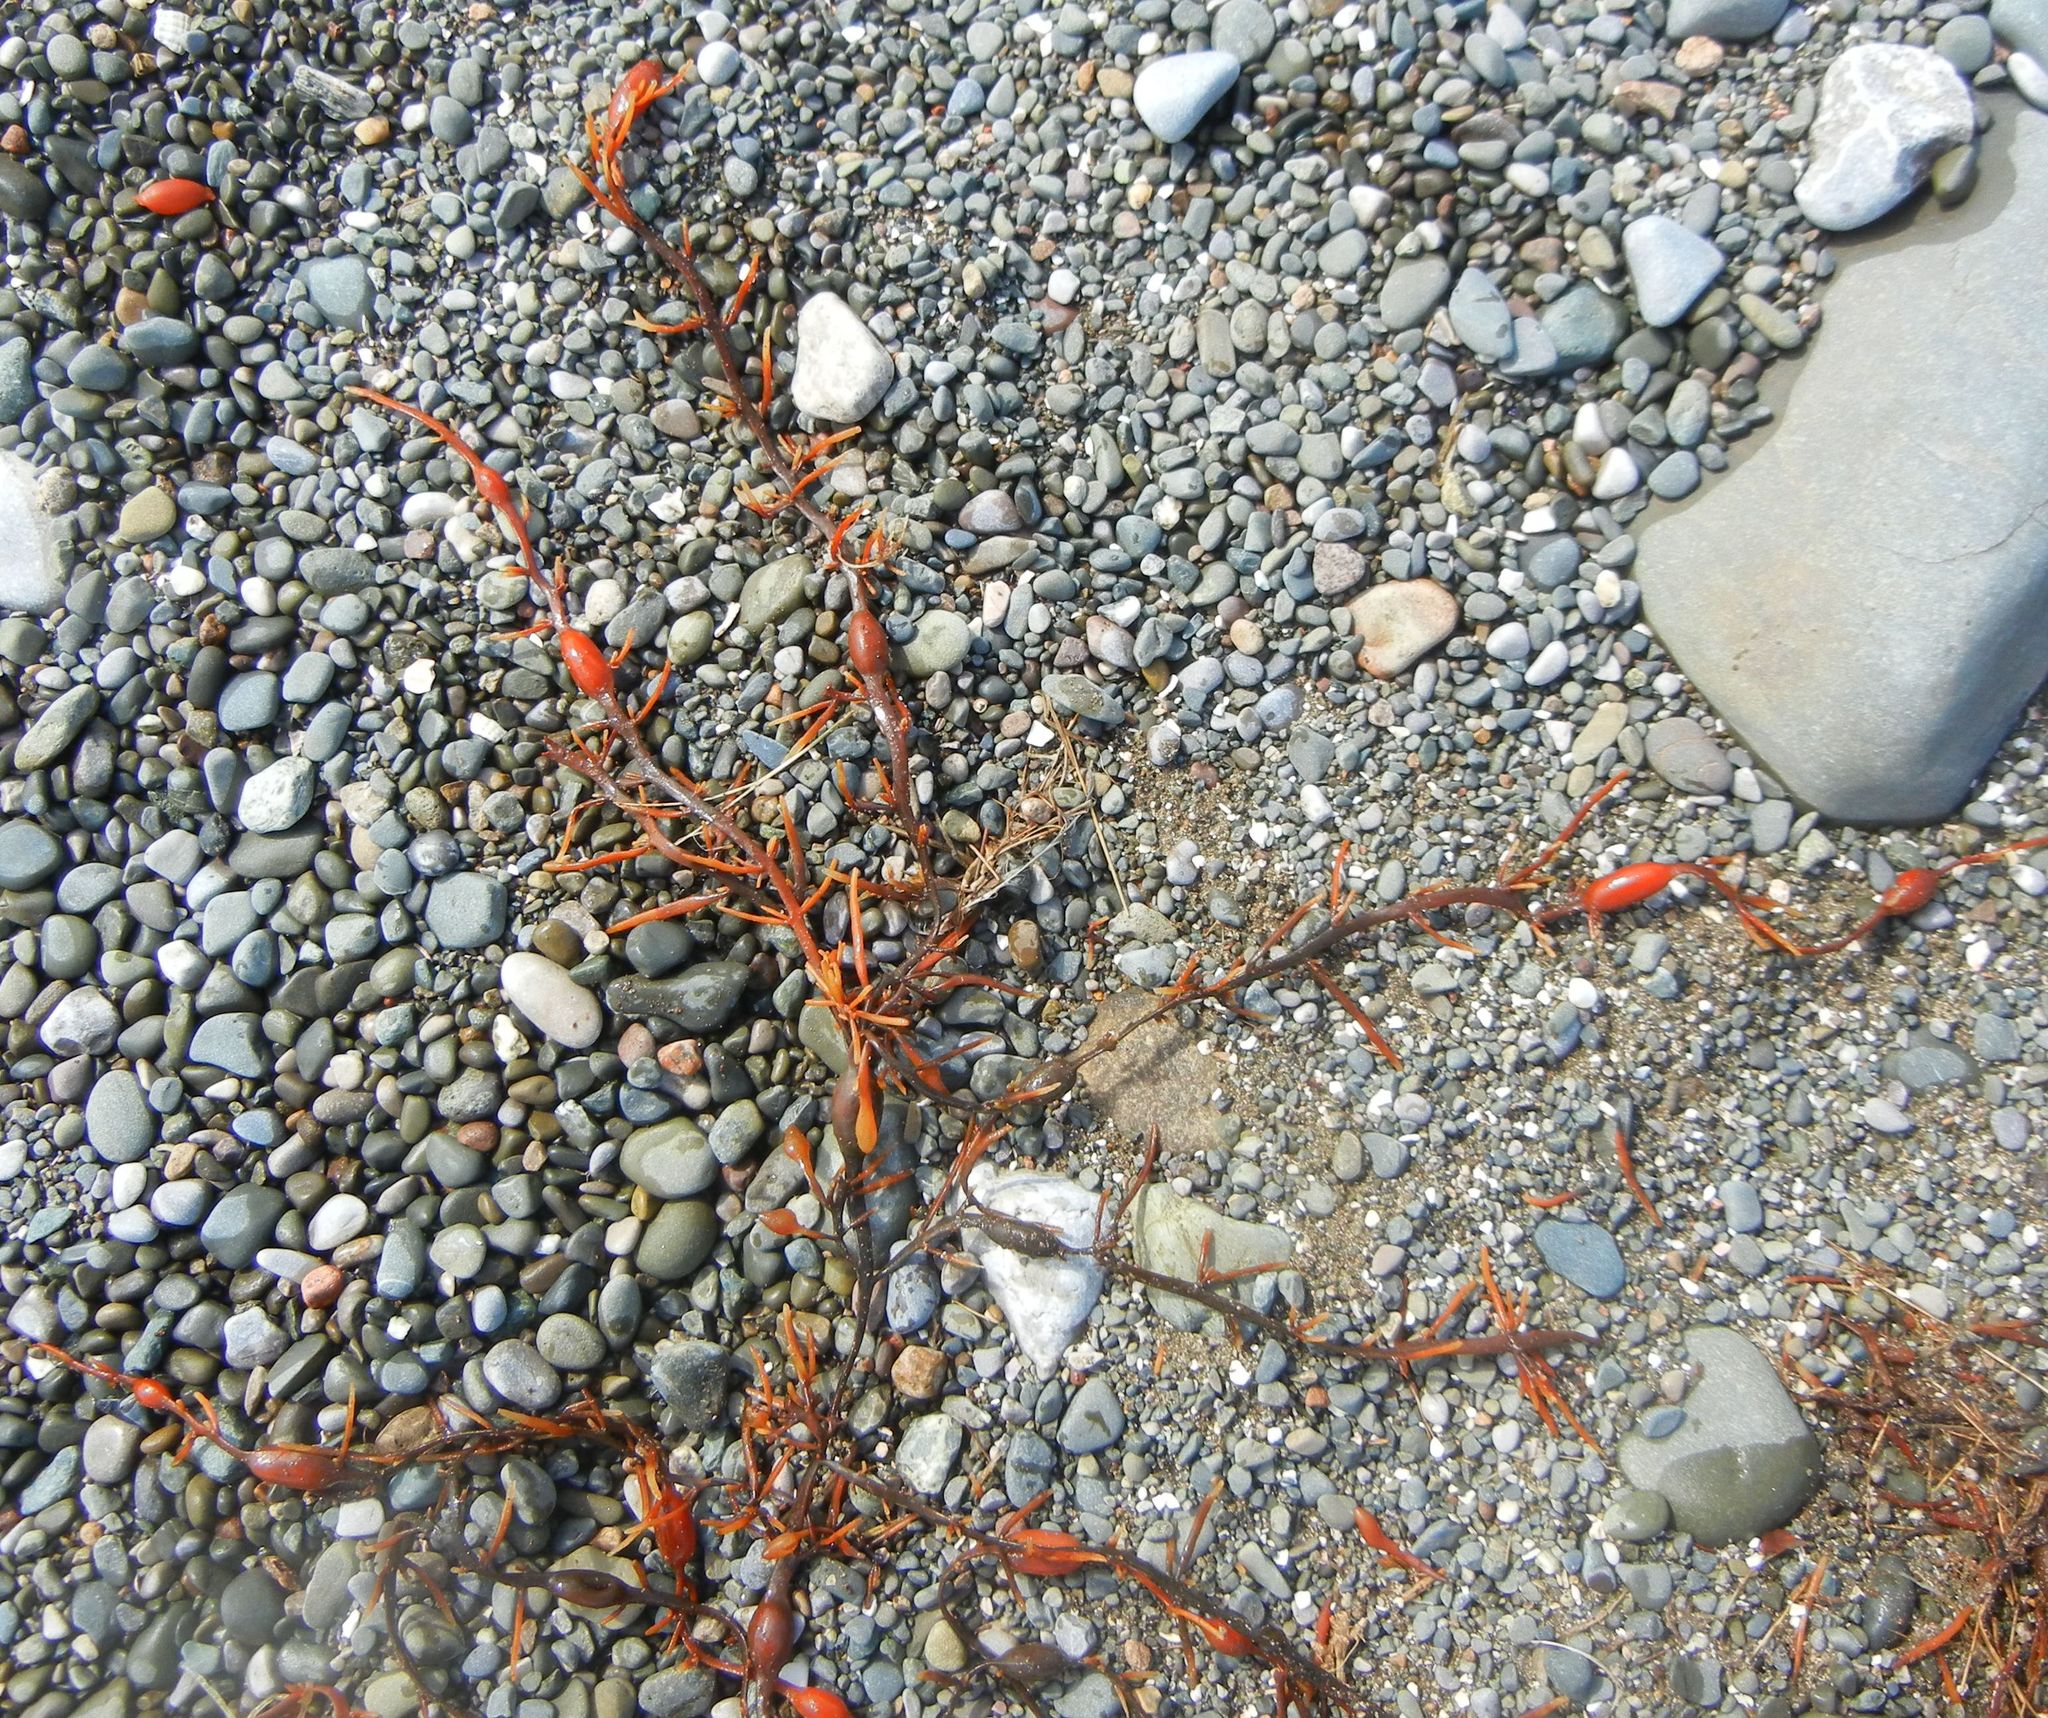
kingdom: Chromista
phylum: Ochrophyta
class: Phaeophyceae
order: Fucales
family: Fucaceae
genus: Ascophyllum
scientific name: Ascophyllum nodosum
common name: Knotted wrack
